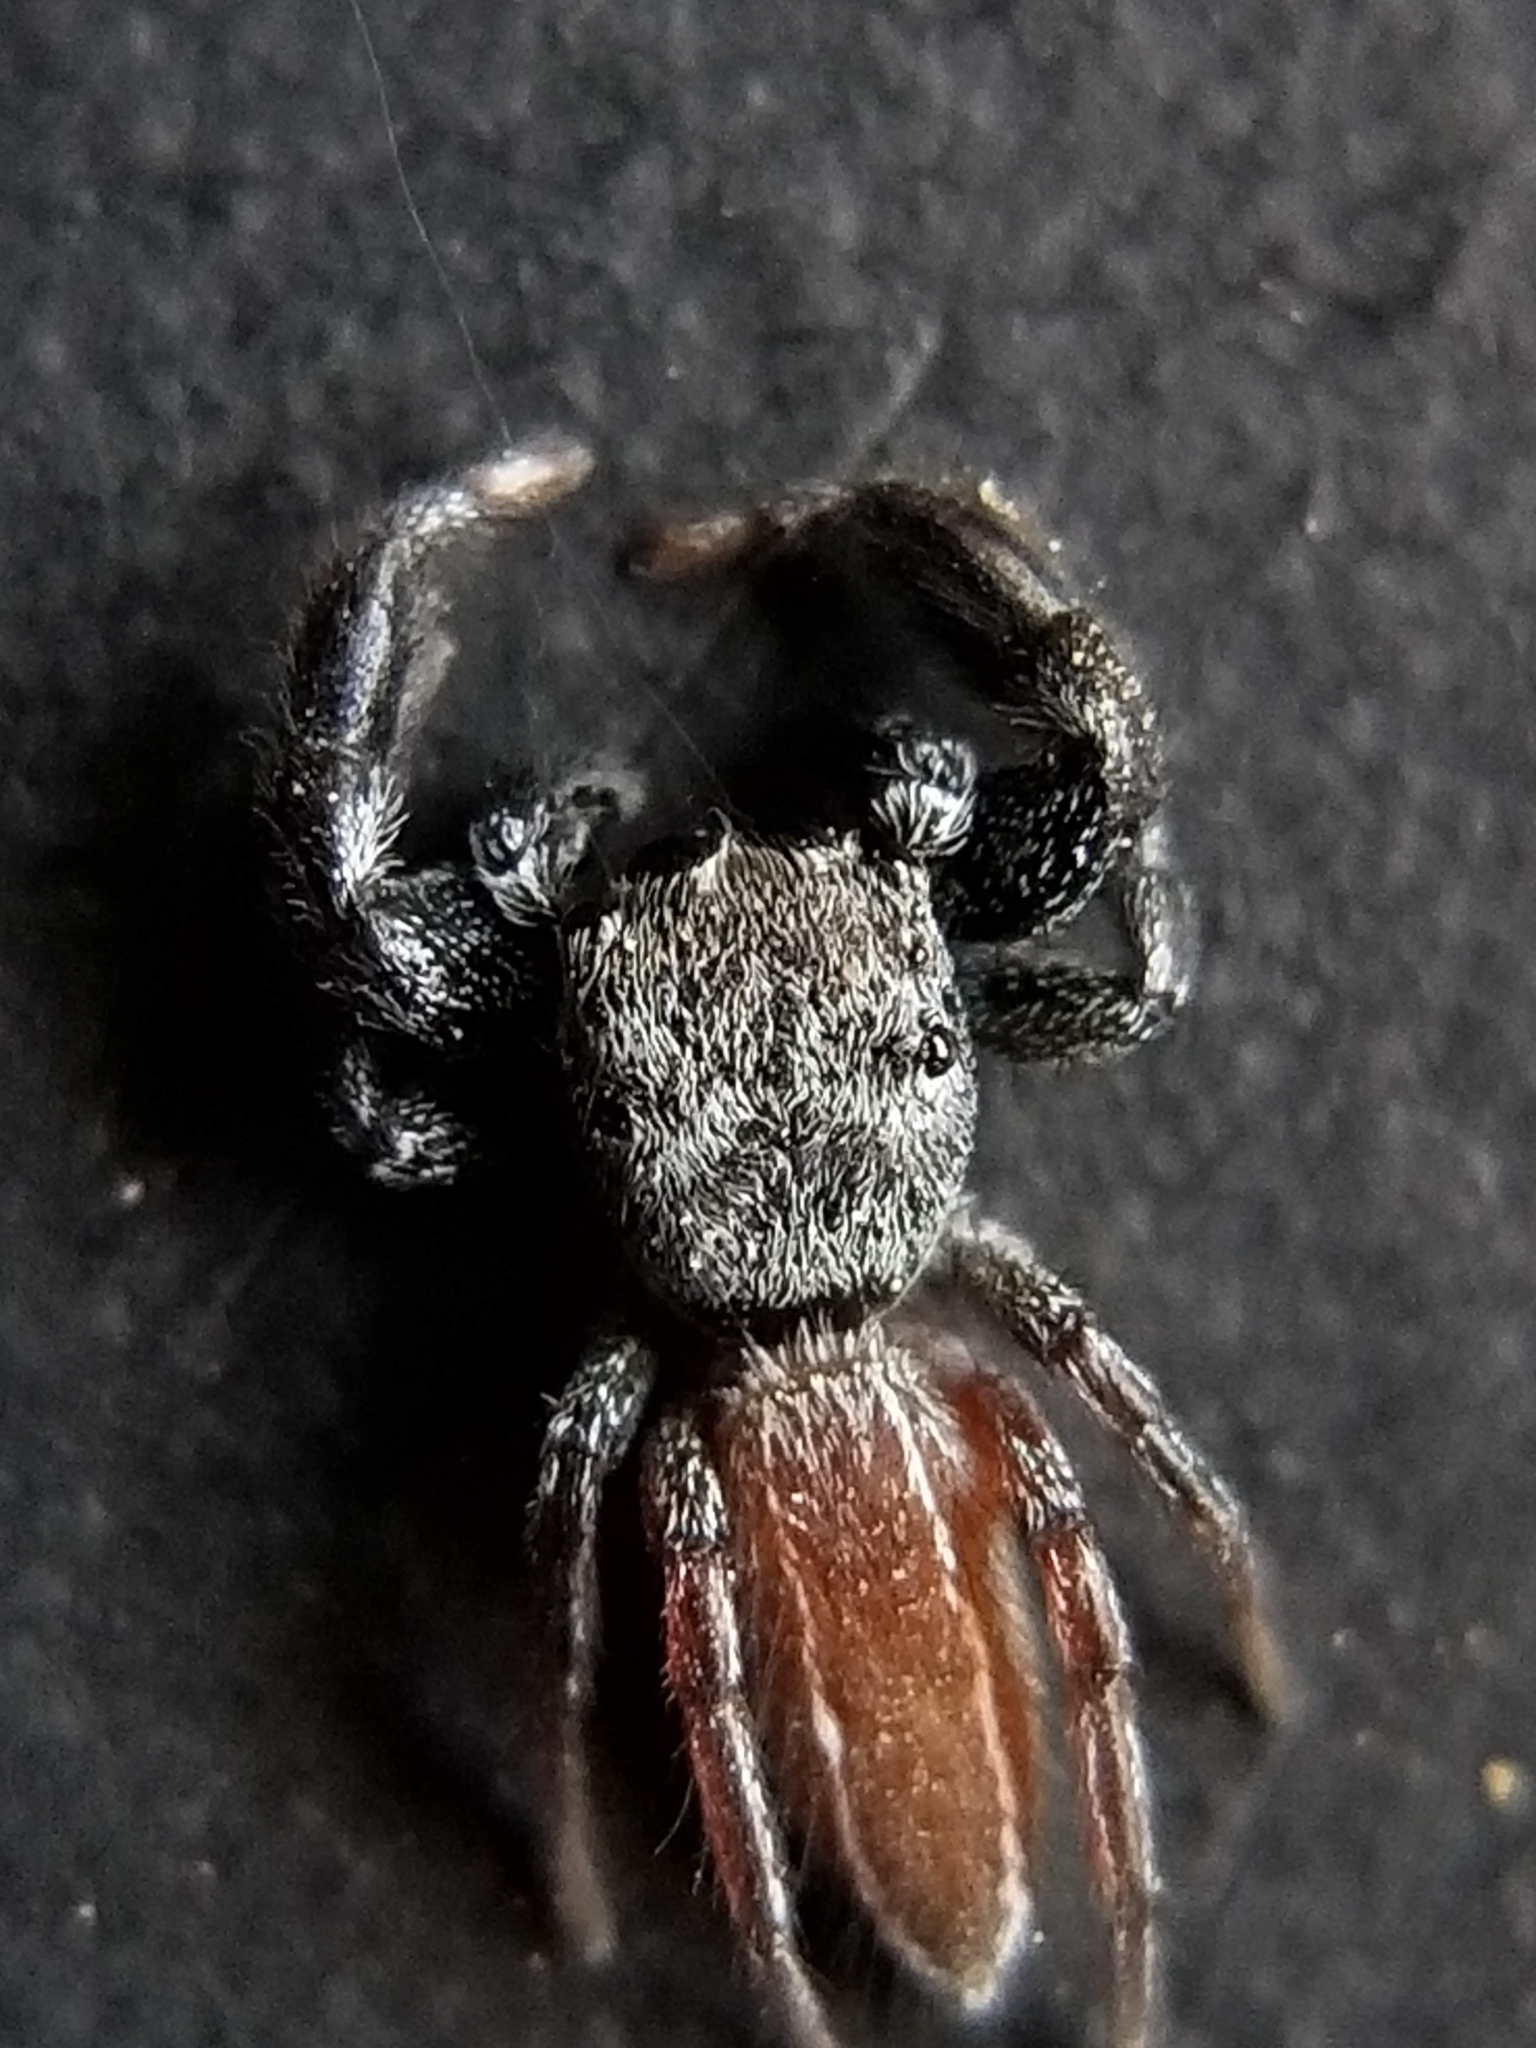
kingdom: Animalia
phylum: Arthropoda
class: Arachnida
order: Araneae
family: Salticidae
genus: Metacyrba
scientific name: Metacyrba taeniola
